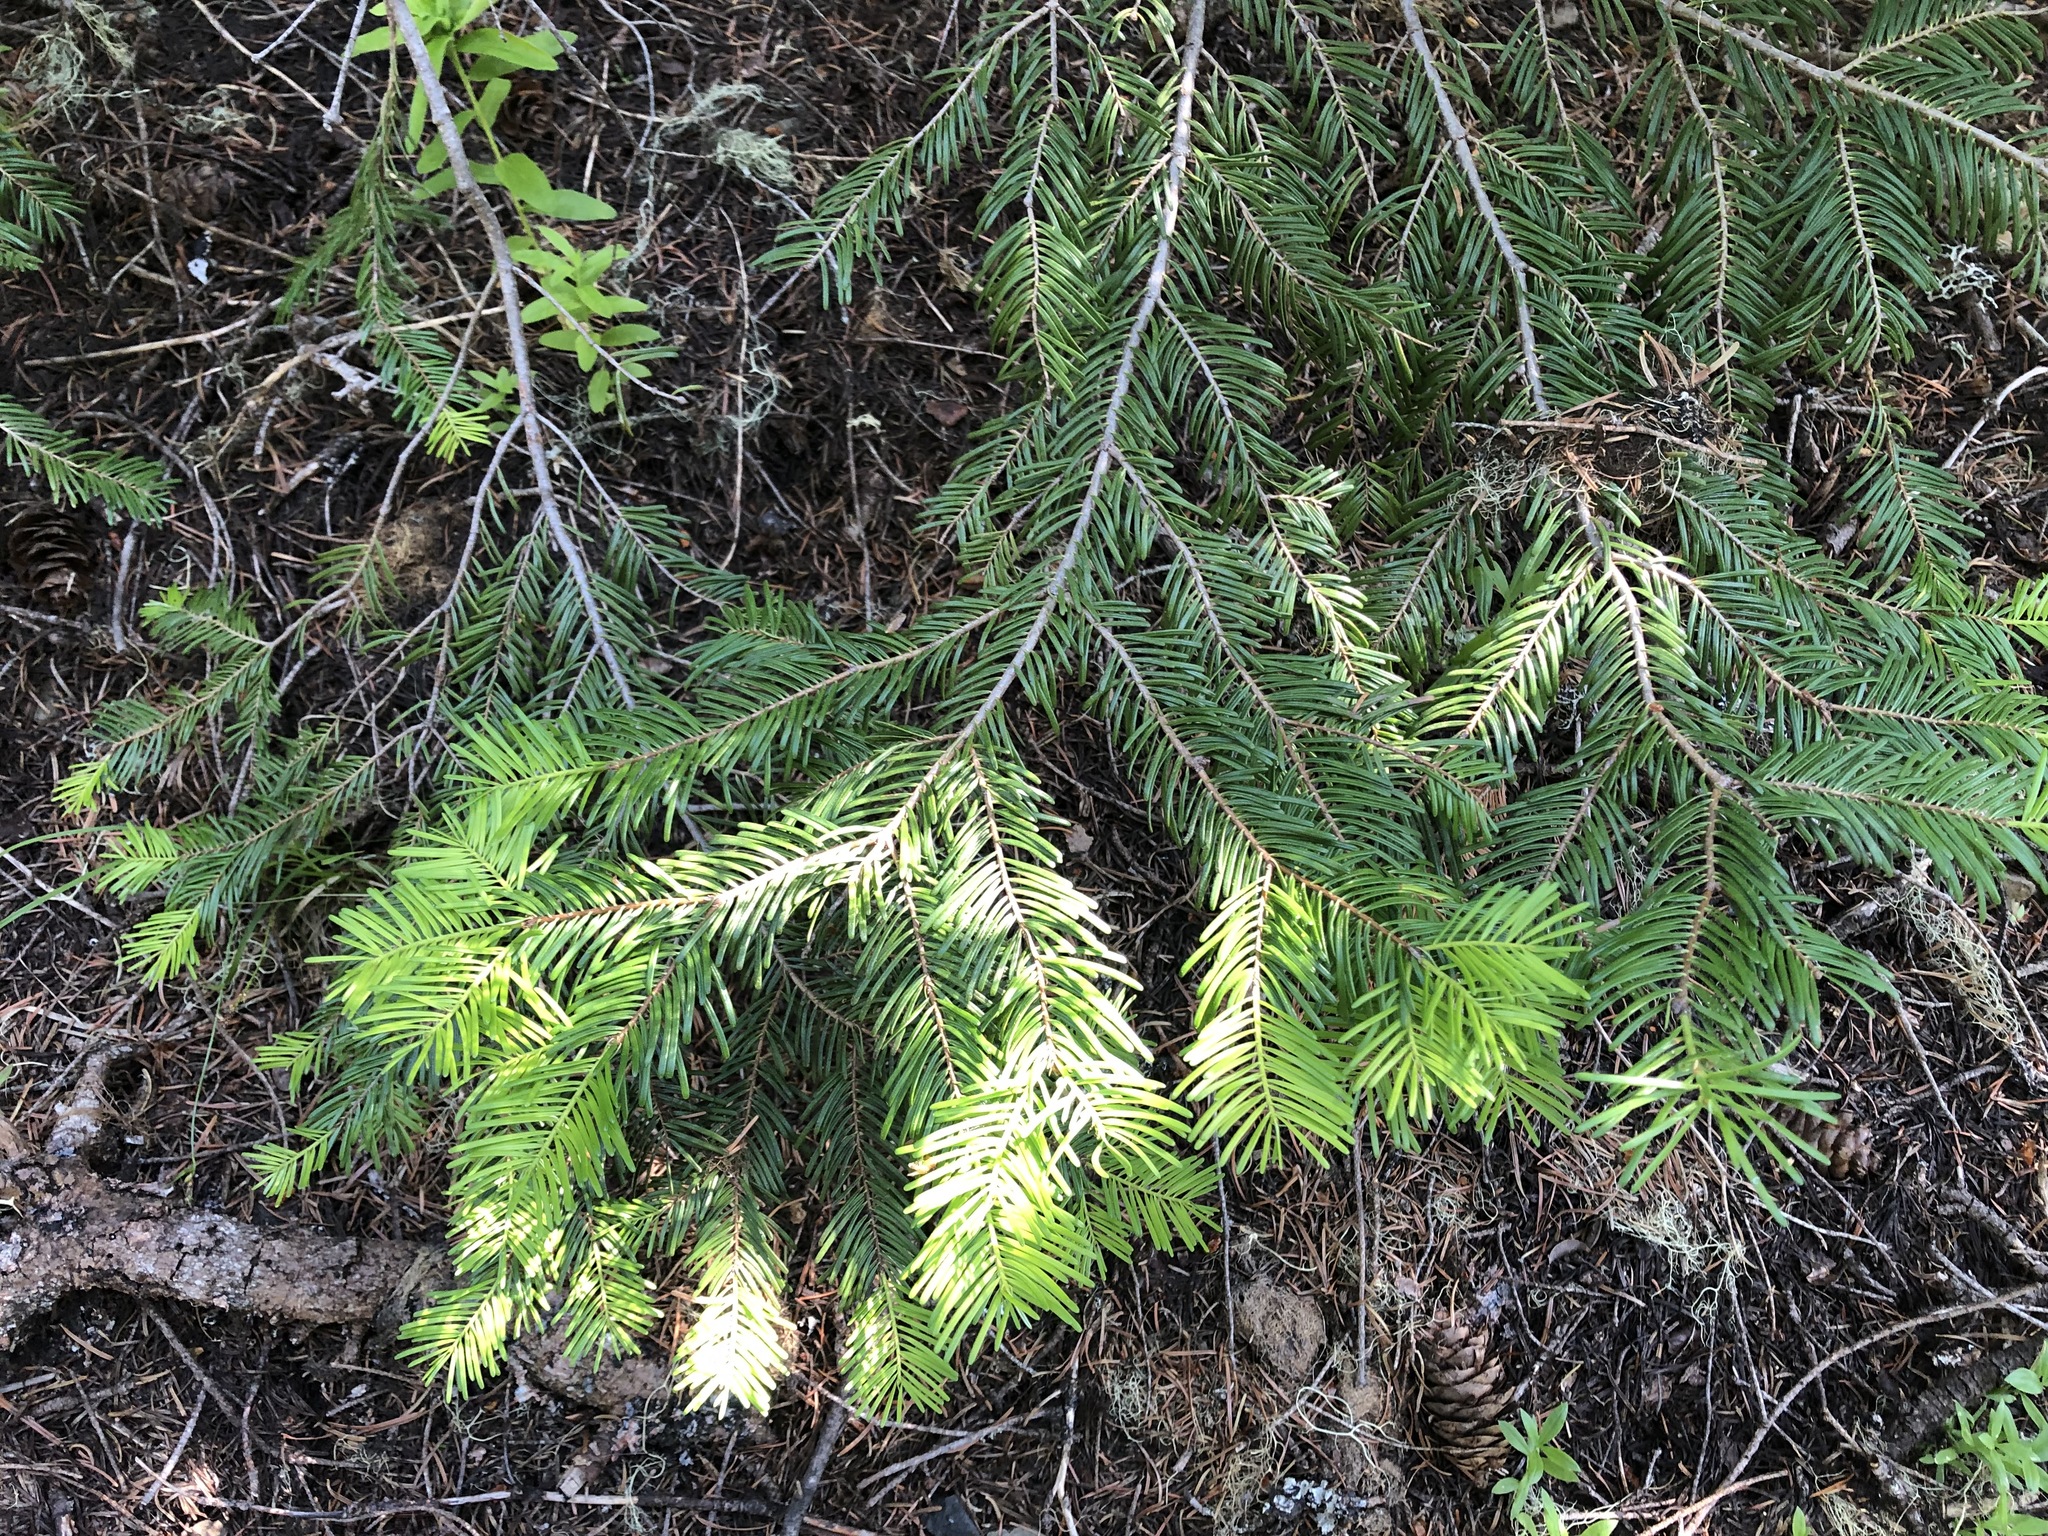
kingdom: Plantae
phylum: Tracheophyta
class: Pinopsida
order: Pinales
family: Pinaceae
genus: Abies
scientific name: Abies grandis
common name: Giant fir
